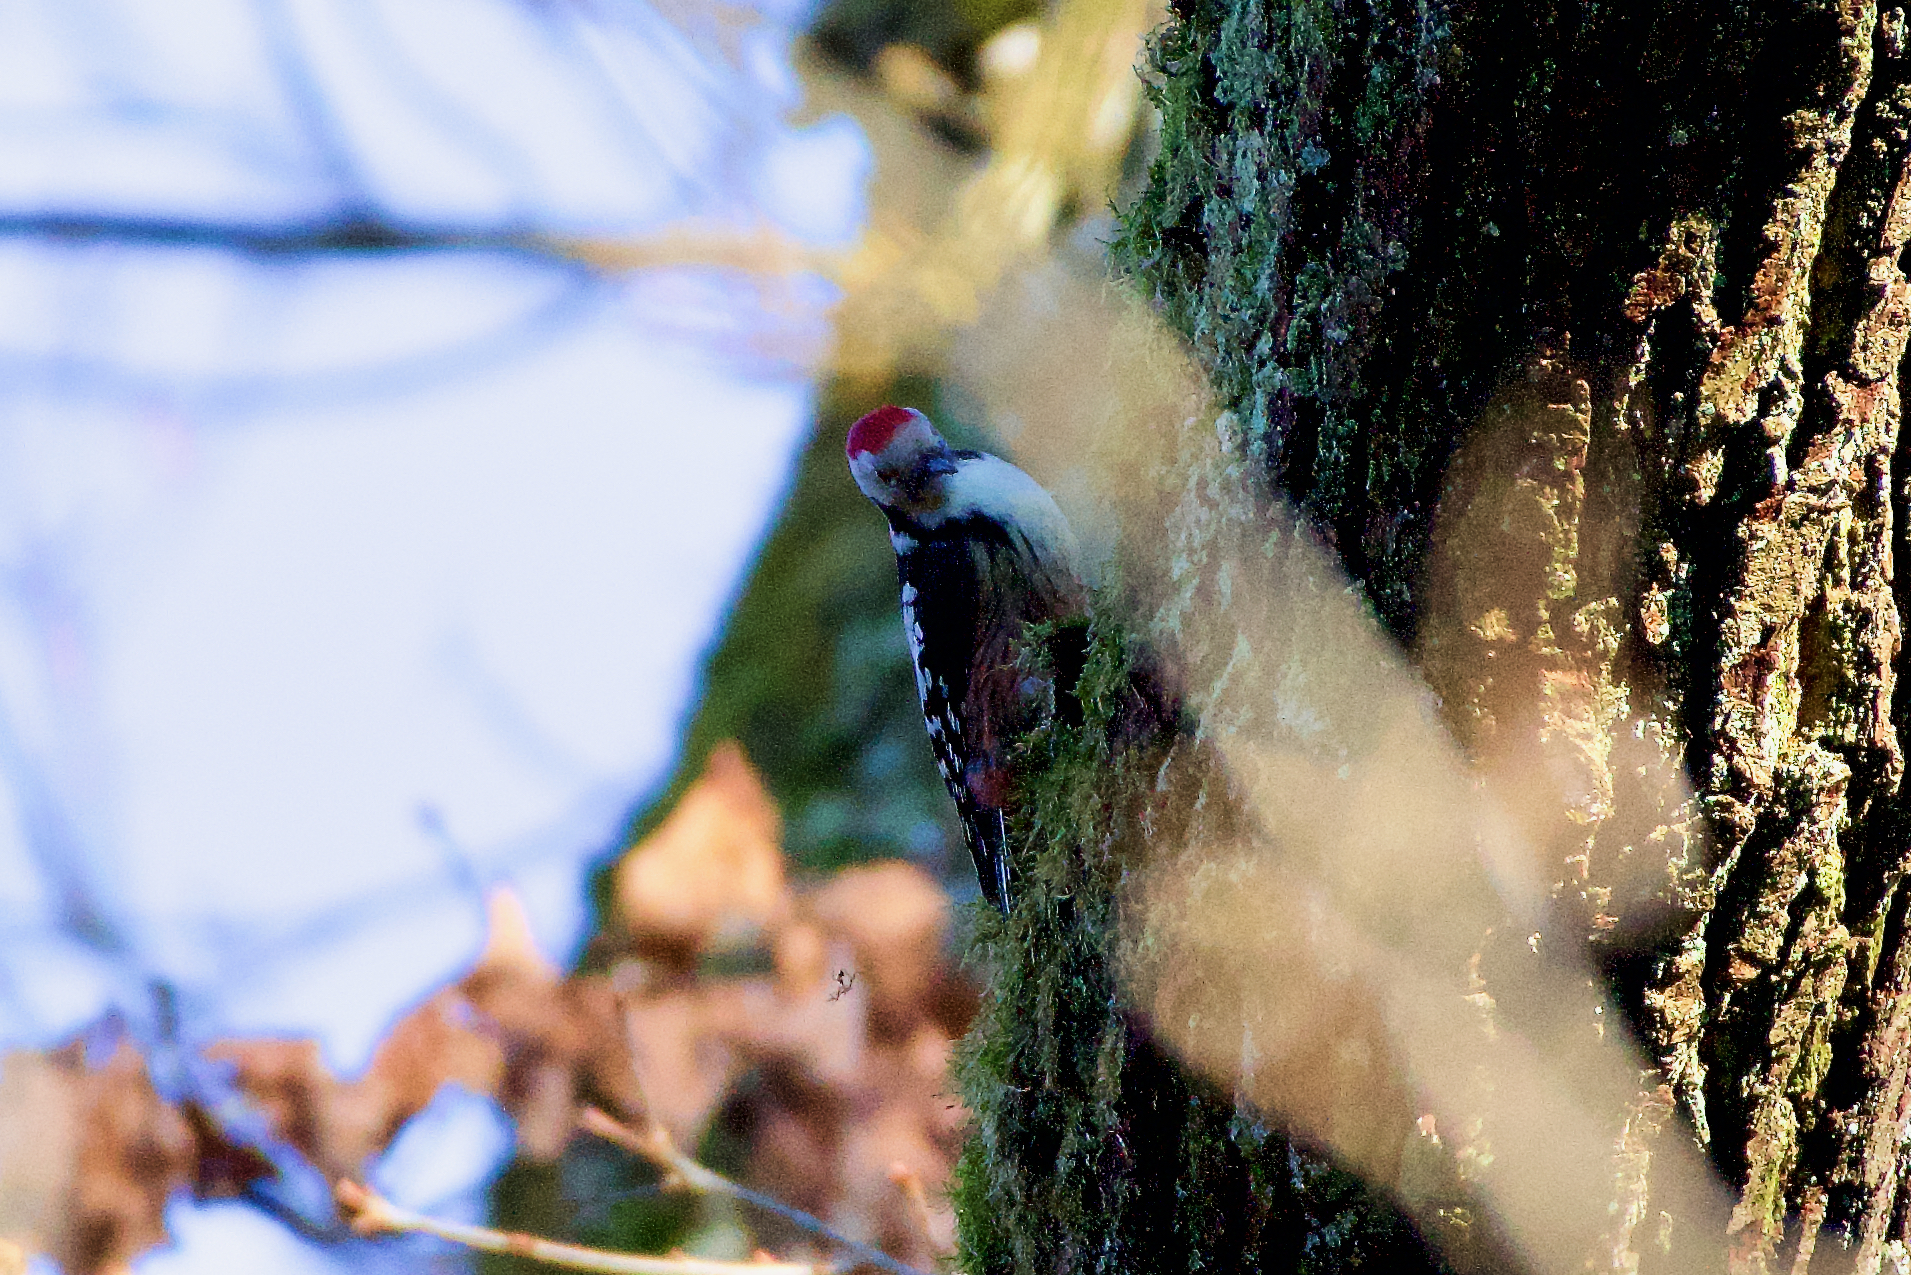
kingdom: Animalia
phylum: Chordata
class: Aves
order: Piciformes
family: Picidae
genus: Dendrocoptes
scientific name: Dendrocoptes medius
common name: Middle spotted woodpecker
